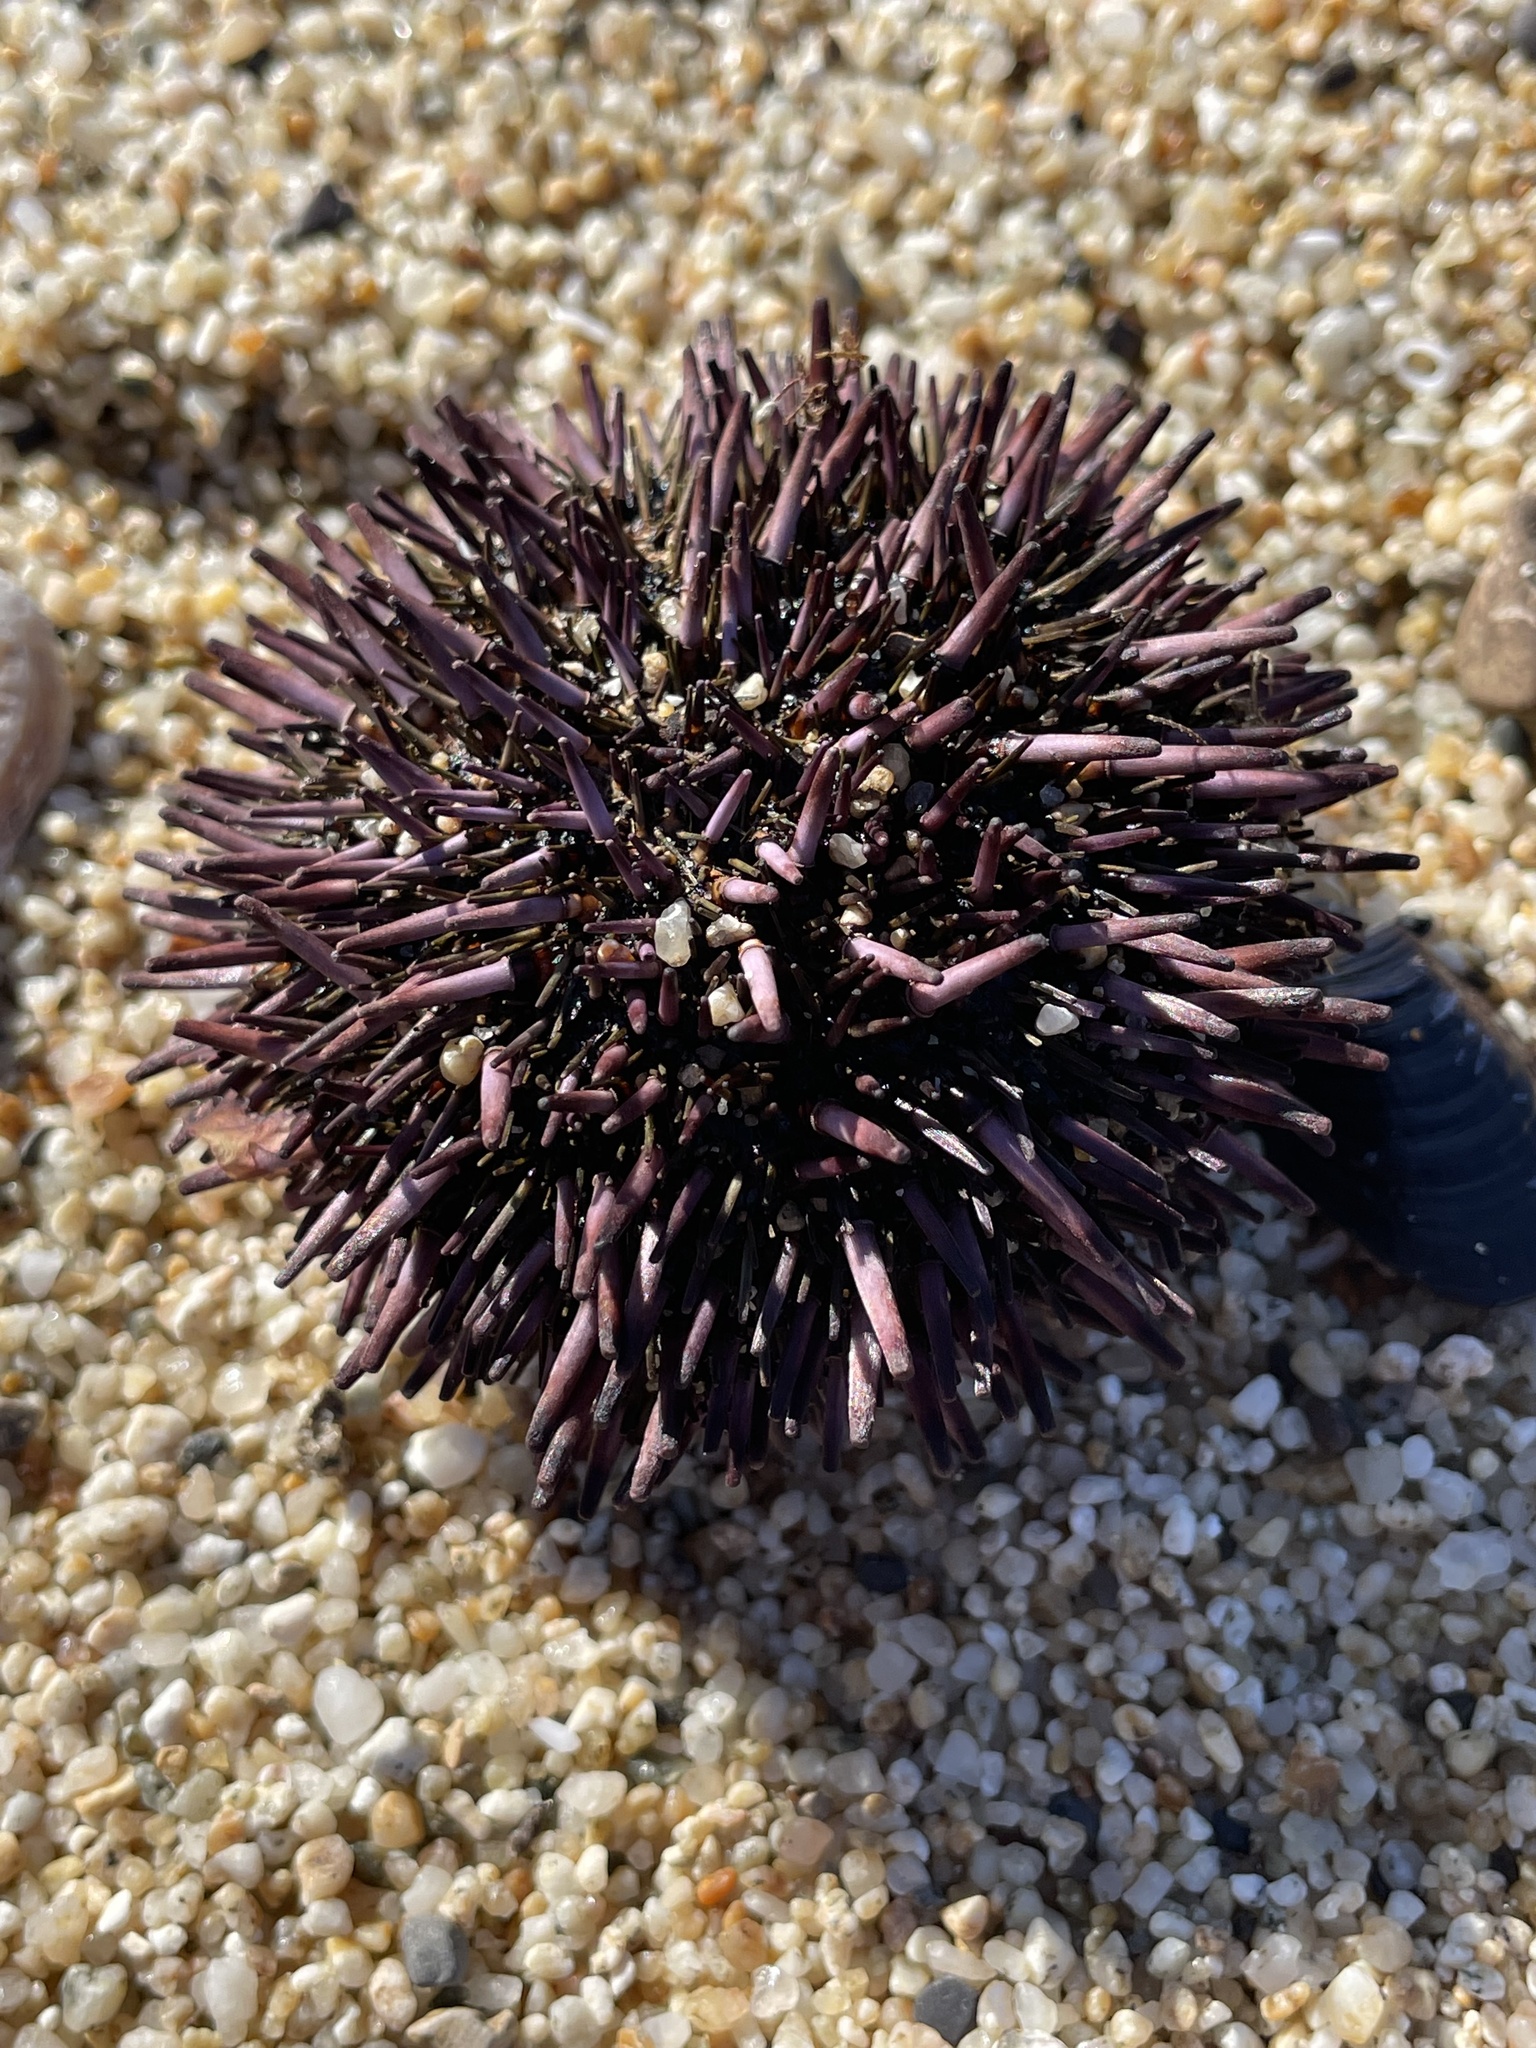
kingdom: Animalia
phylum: Echinodermata
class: Echinoidea
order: Camarodonta
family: Strongylocentrotidae
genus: Strongylocentrotus
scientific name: Strongylocentrotus purpuratus
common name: Purple sea urchin
